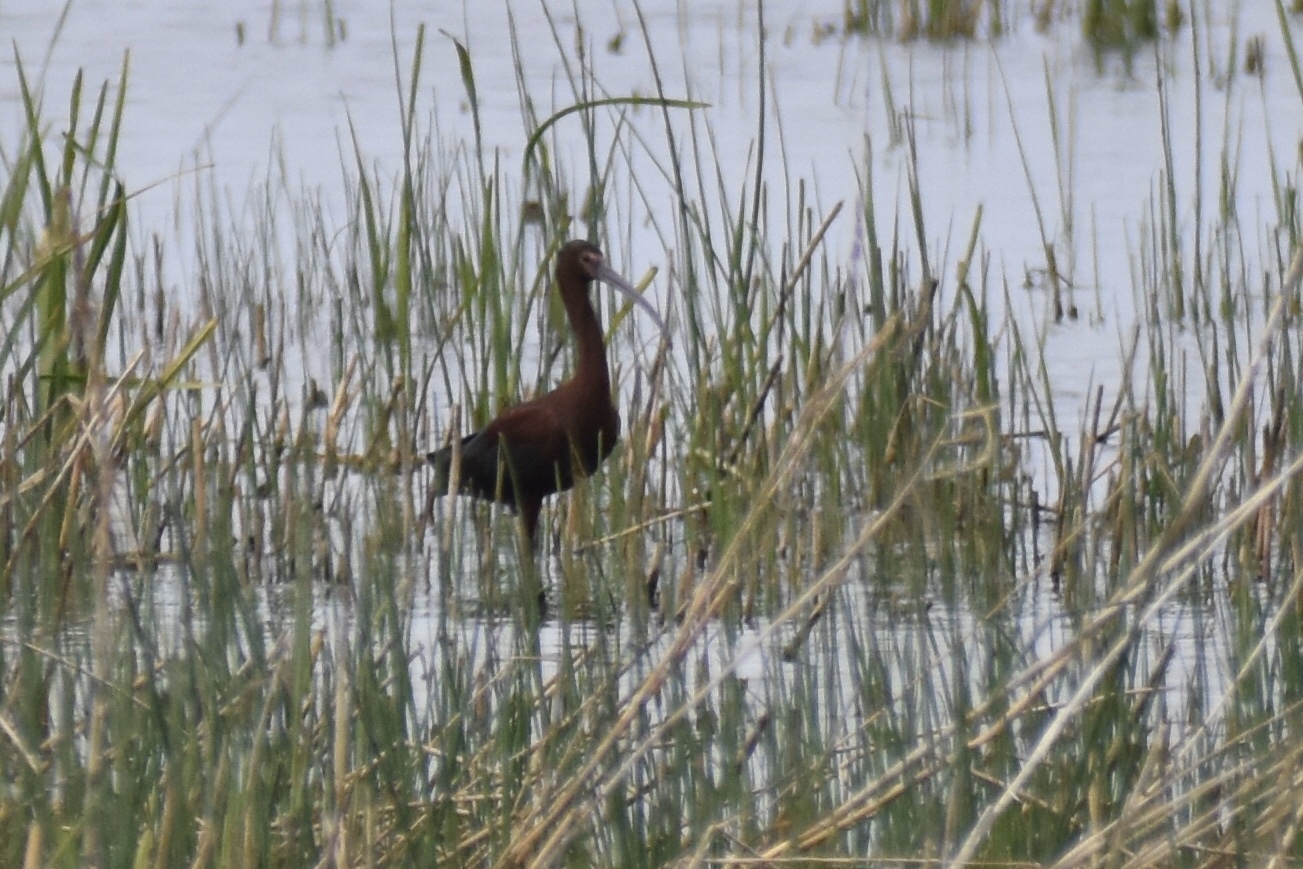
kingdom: Animalia
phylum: Chordata
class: Aves
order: Pelecaniformes
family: Threskiornithidae
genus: Plegadis
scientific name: Plegadis chihi
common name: White-faced ibis
